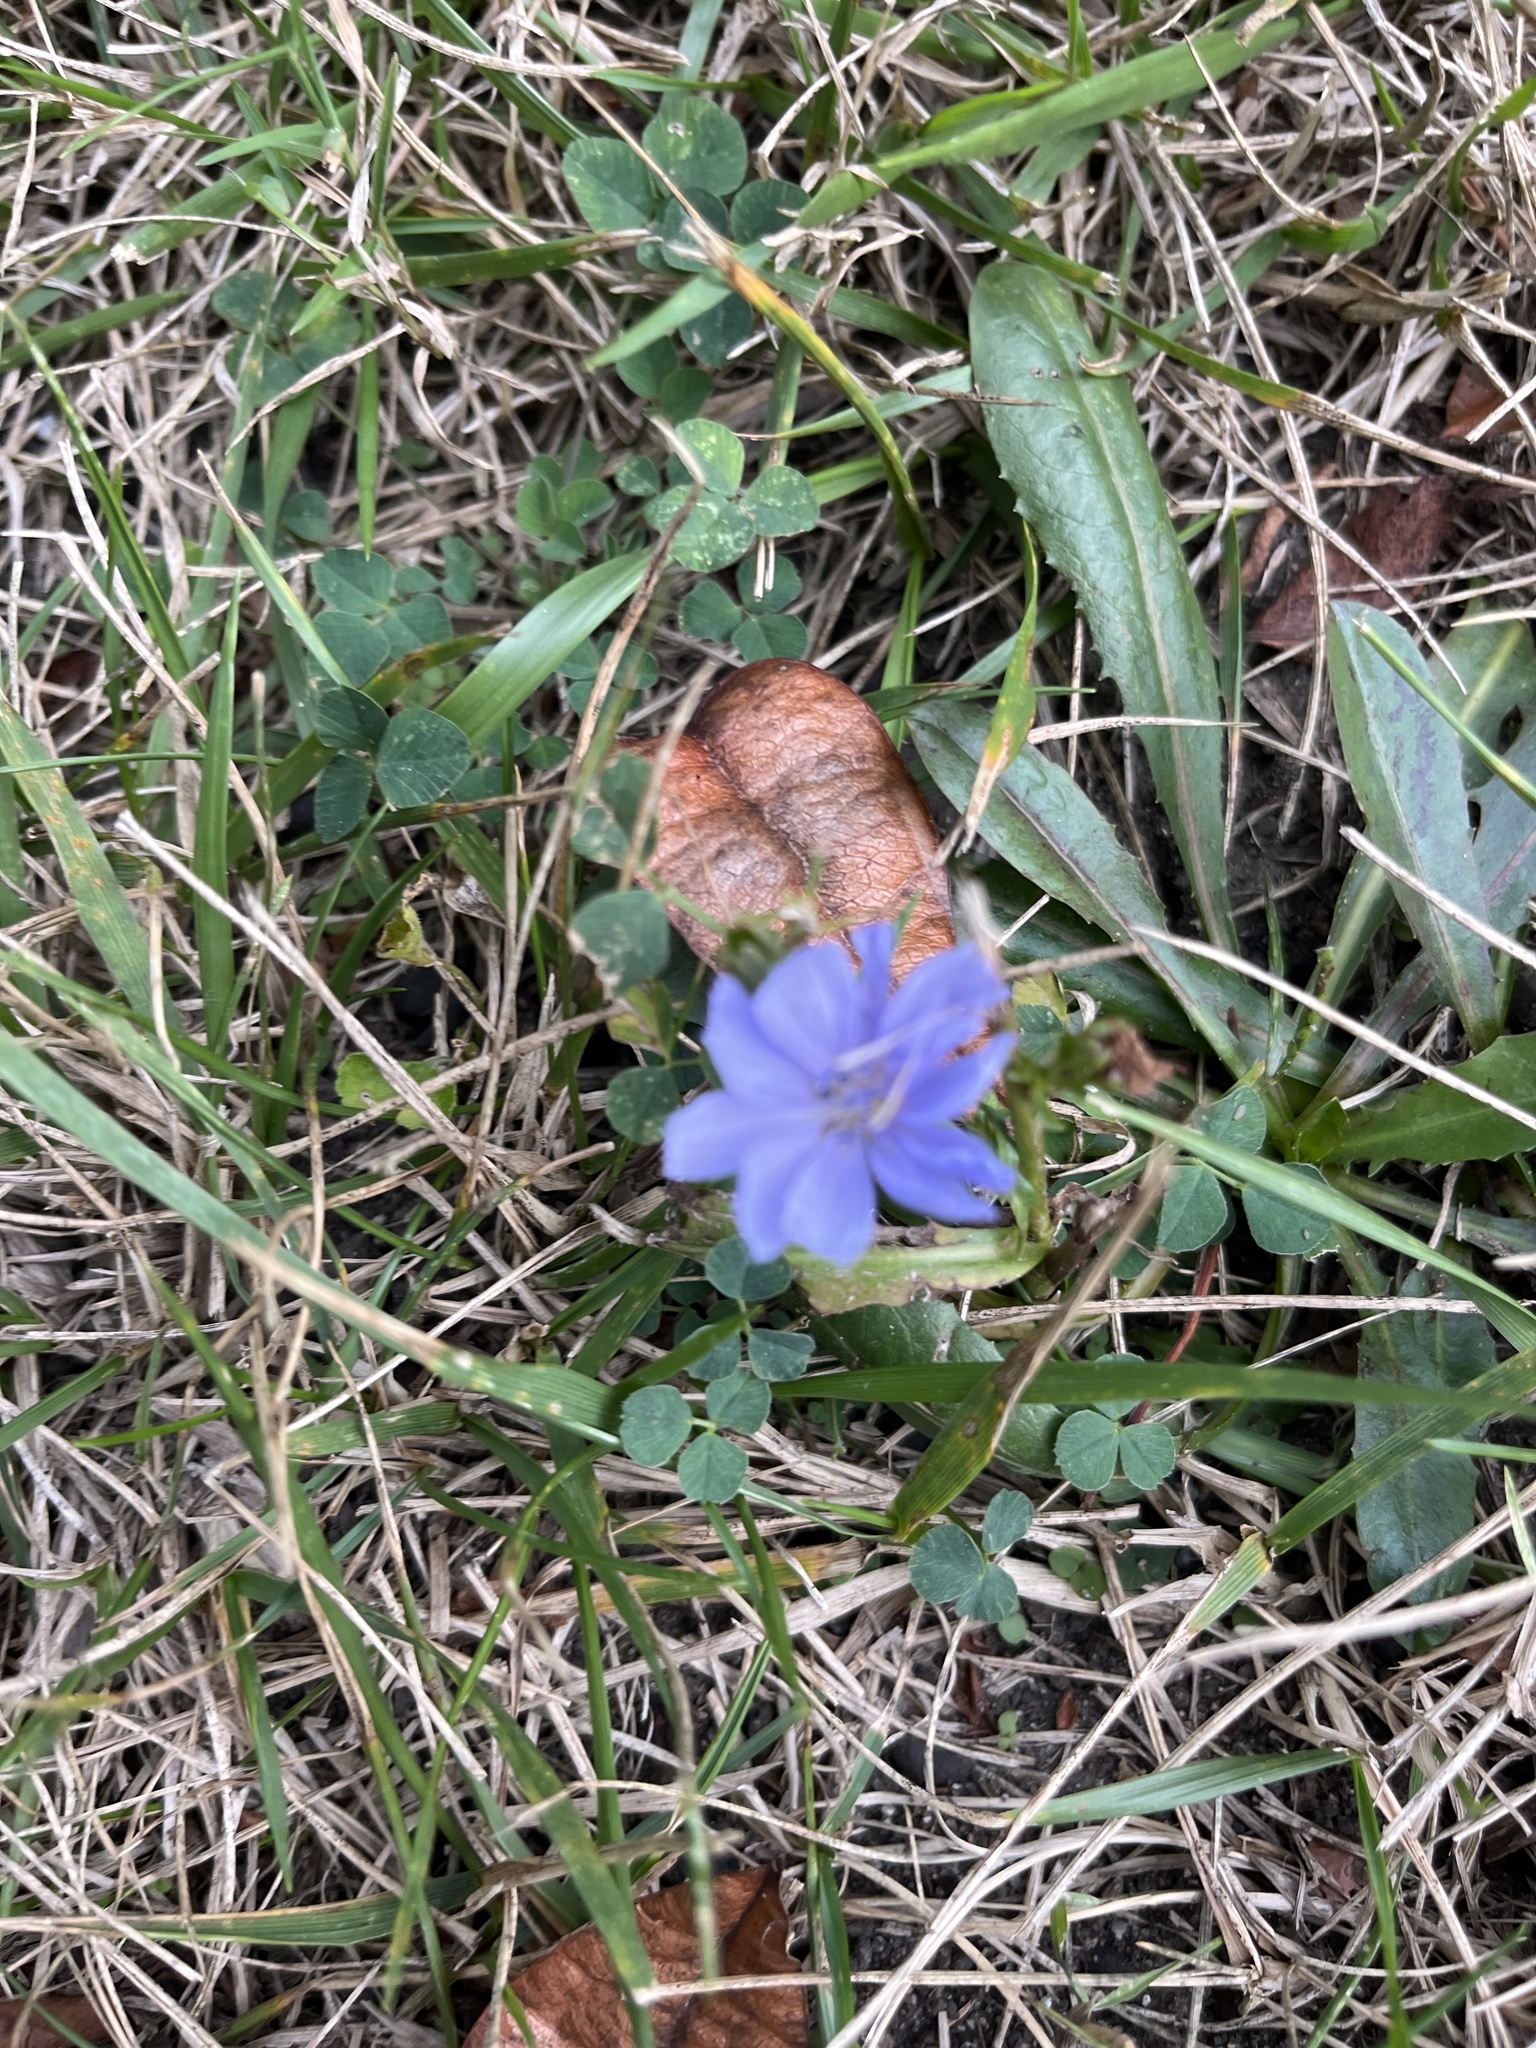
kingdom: Plantae
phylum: Tracheophyta
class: Magnoliopsida
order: Asterales
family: Asteraceae
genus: Cichorium
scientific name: Cichorium intybus
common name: Chicory
